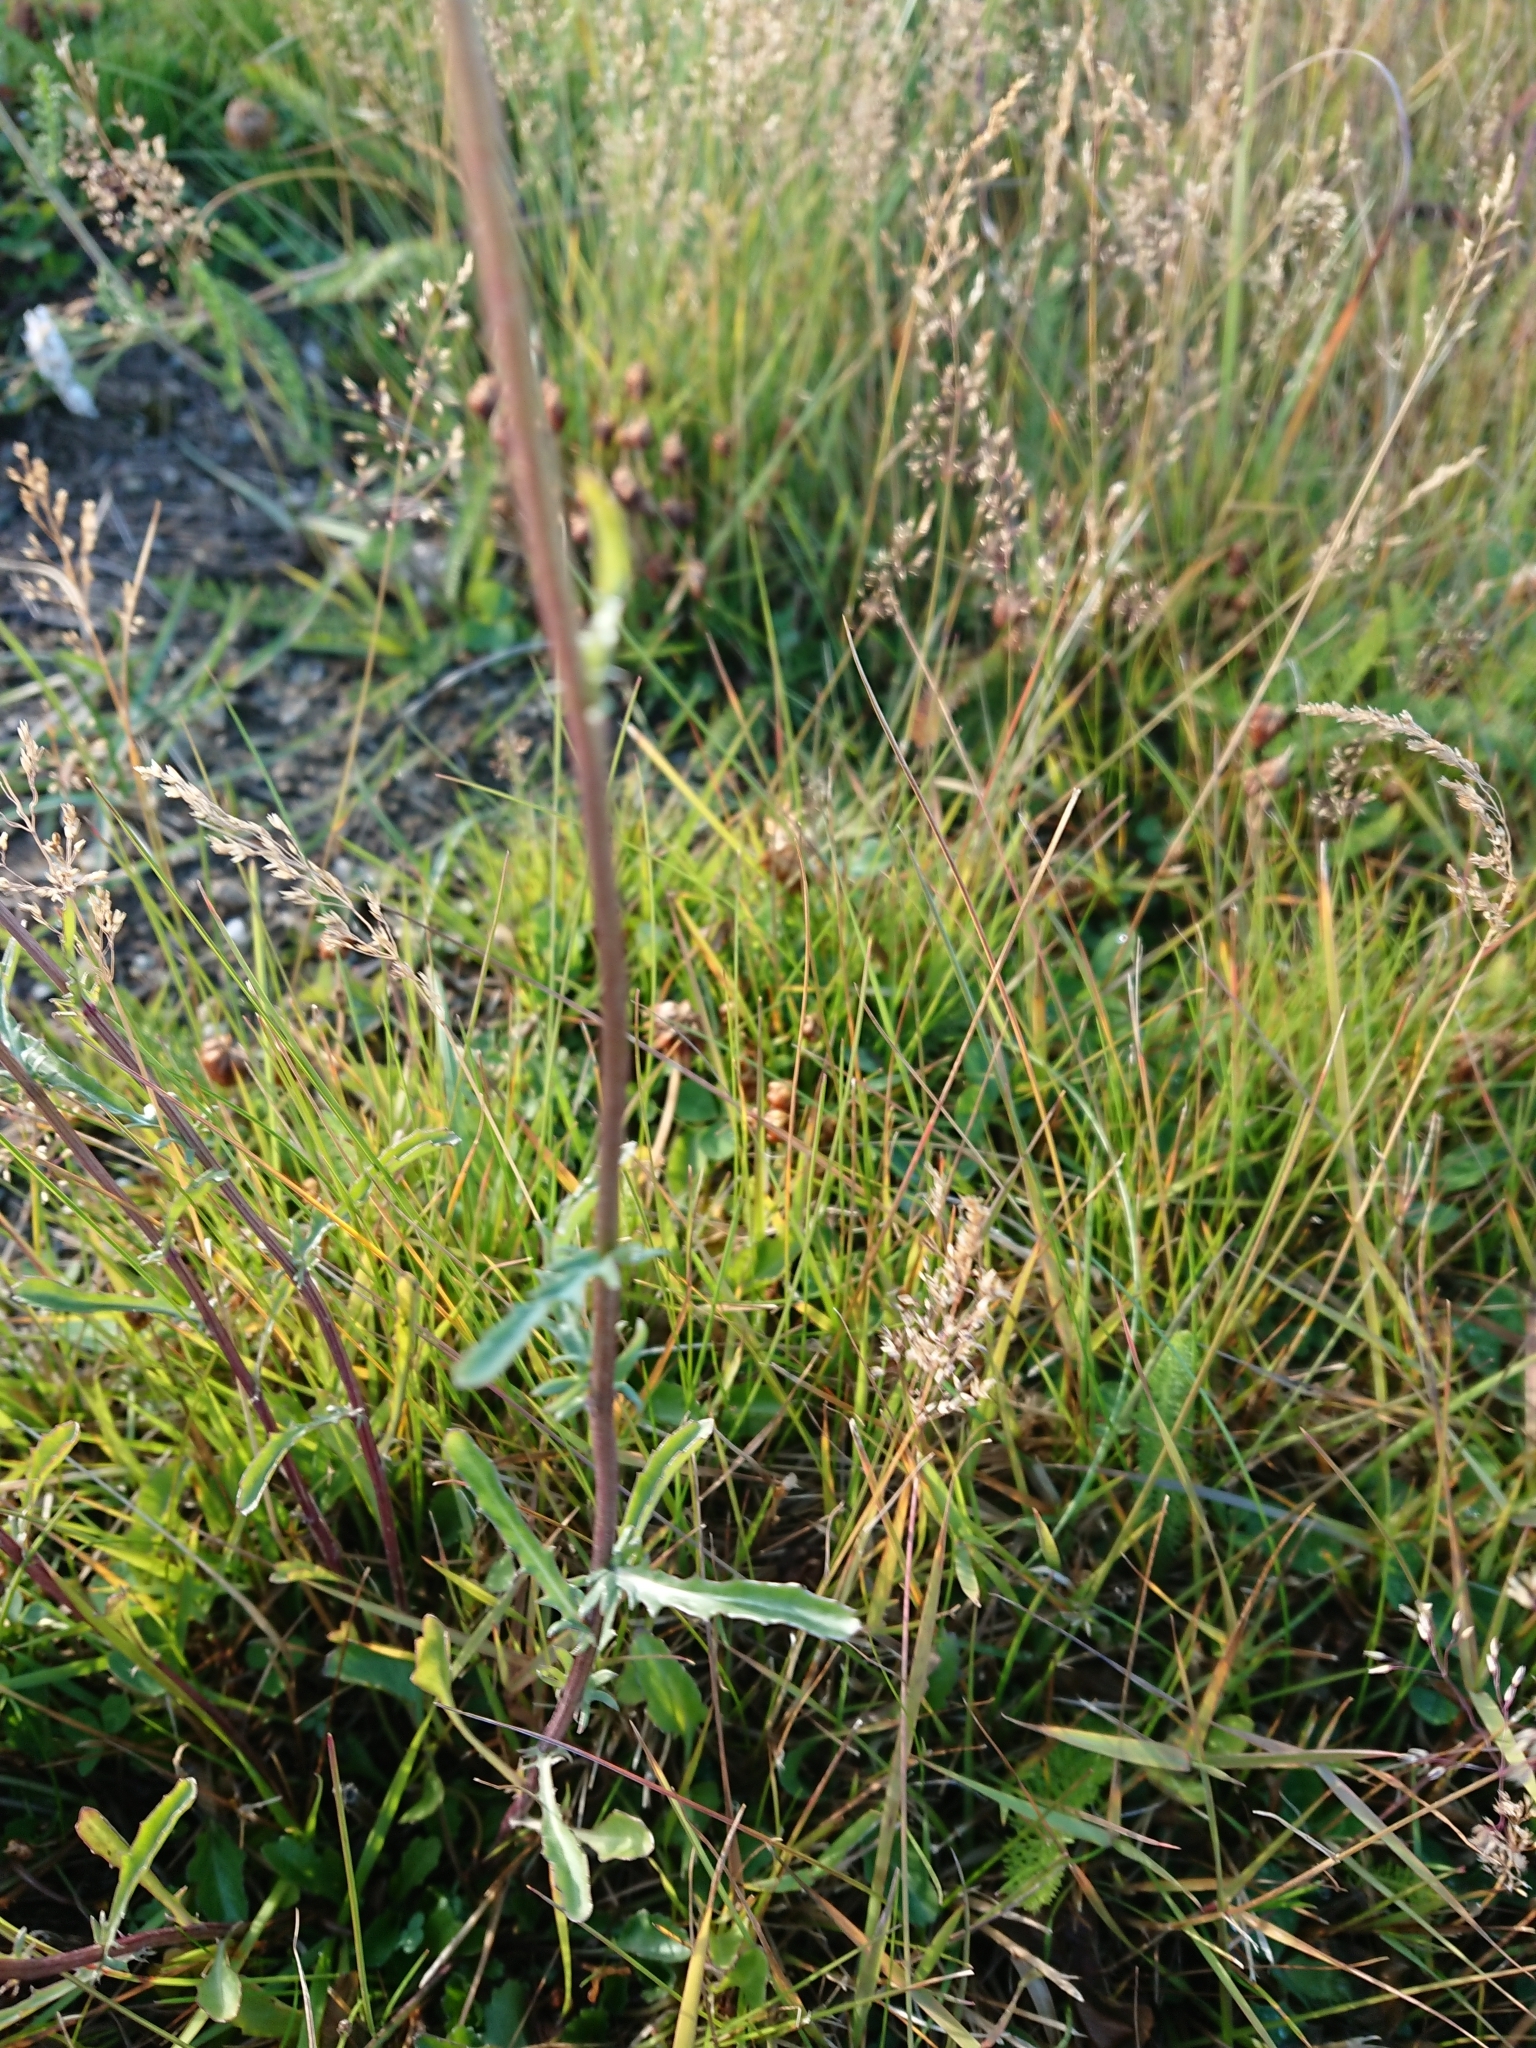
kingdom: Plantae
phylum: Tracheophyta
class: Magnoliopsida
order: Asterales
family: Asteraceae
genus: Leucanthemum
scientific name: Leucanthemum vulgare
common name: Oxeye daisy
